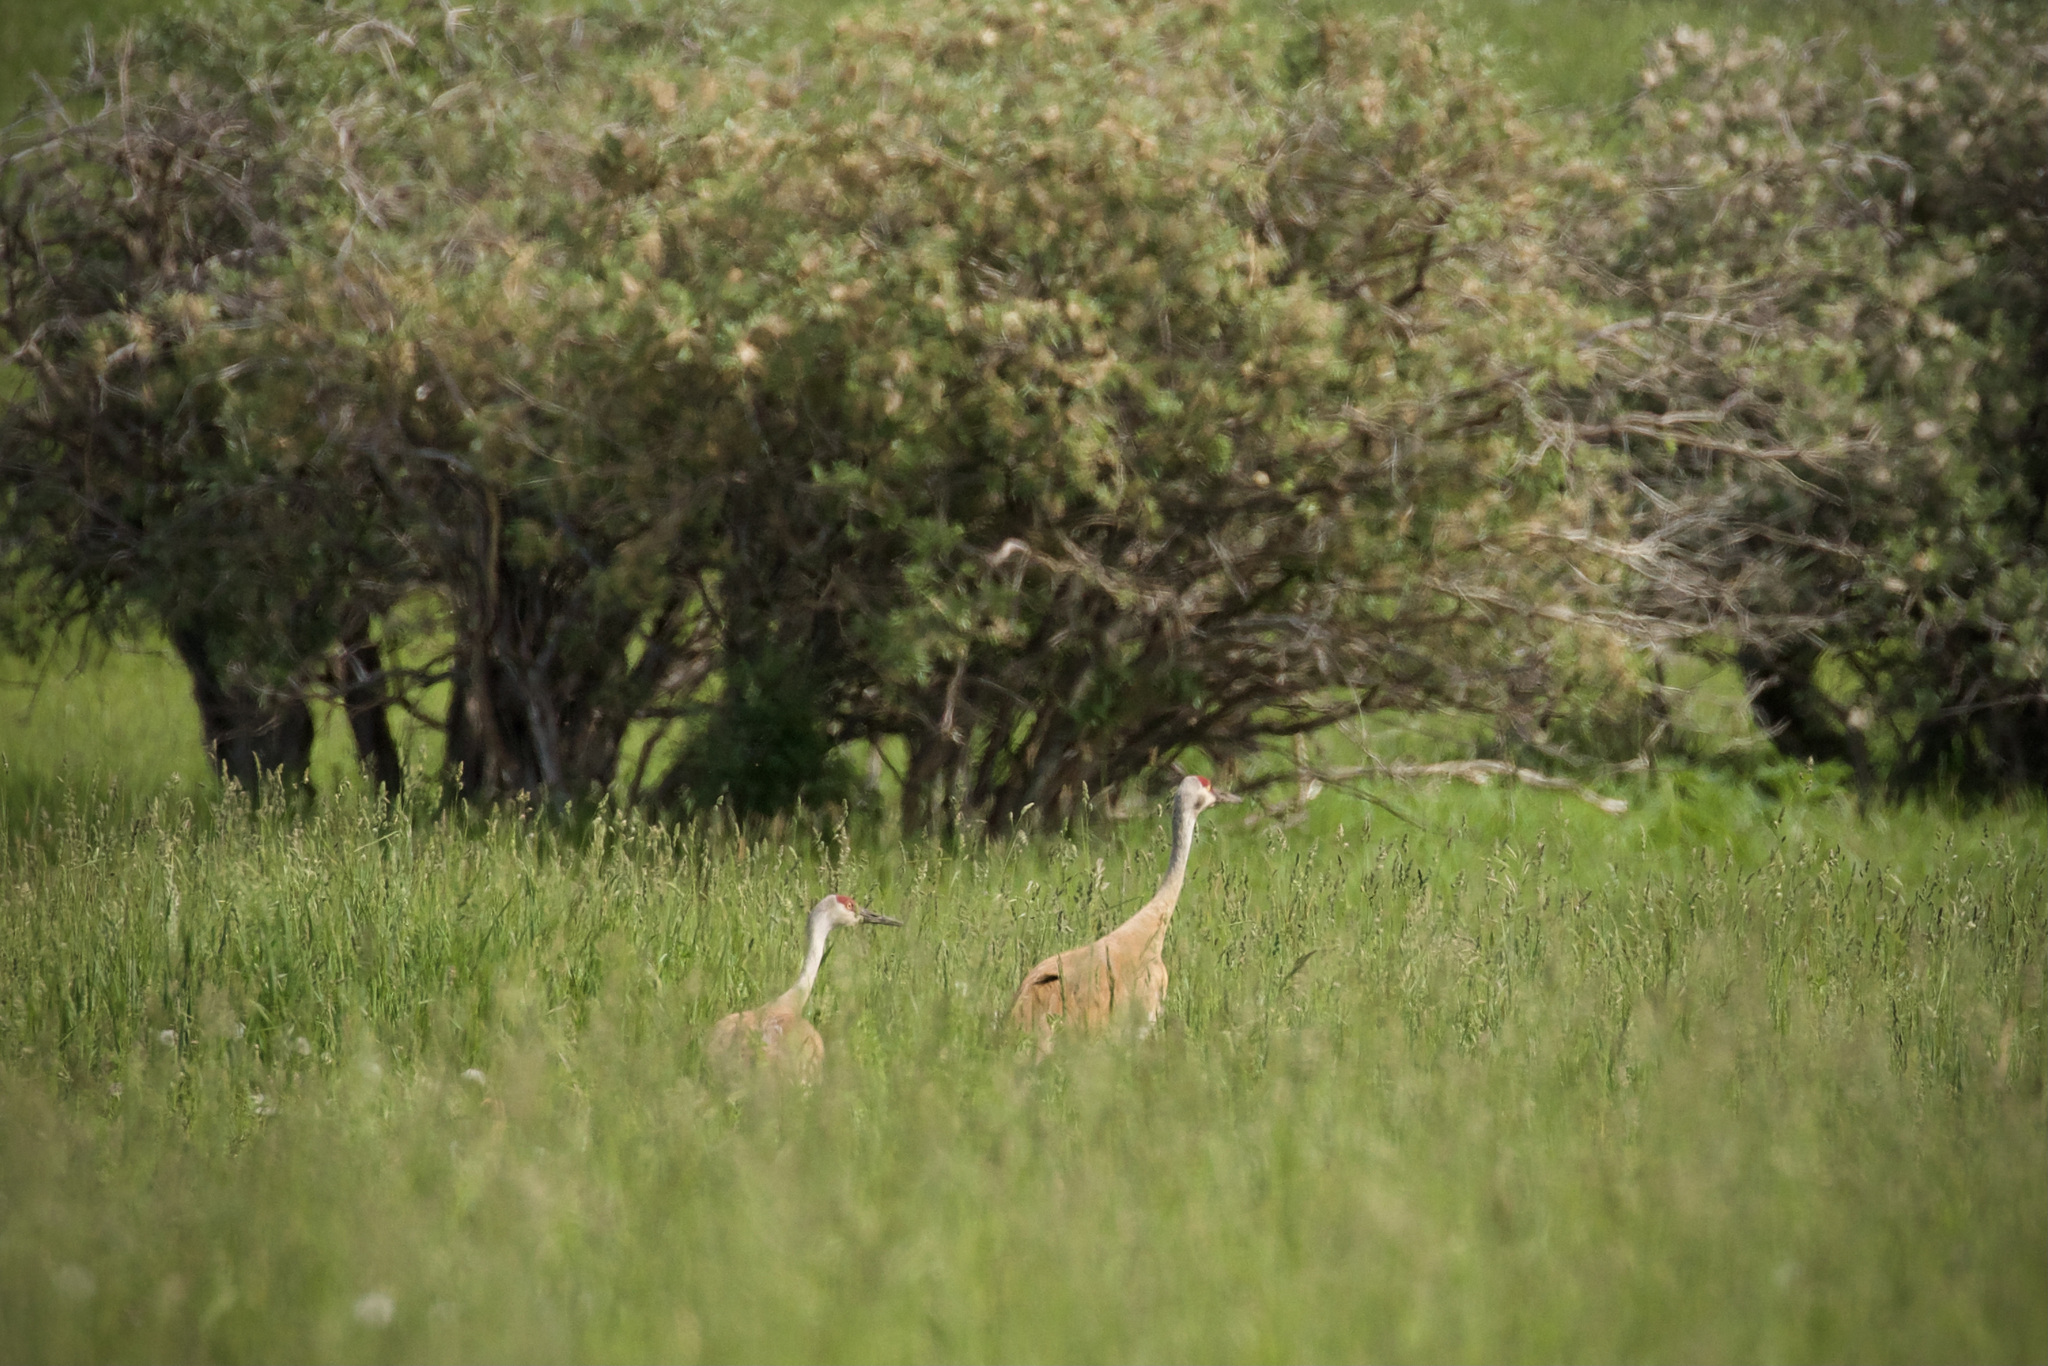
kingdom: Animalia
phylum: Chordata
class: Aves
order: Gruiformes
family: Gruidae
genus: Grus
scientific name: Grus canadensis
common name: Sandhill crane
